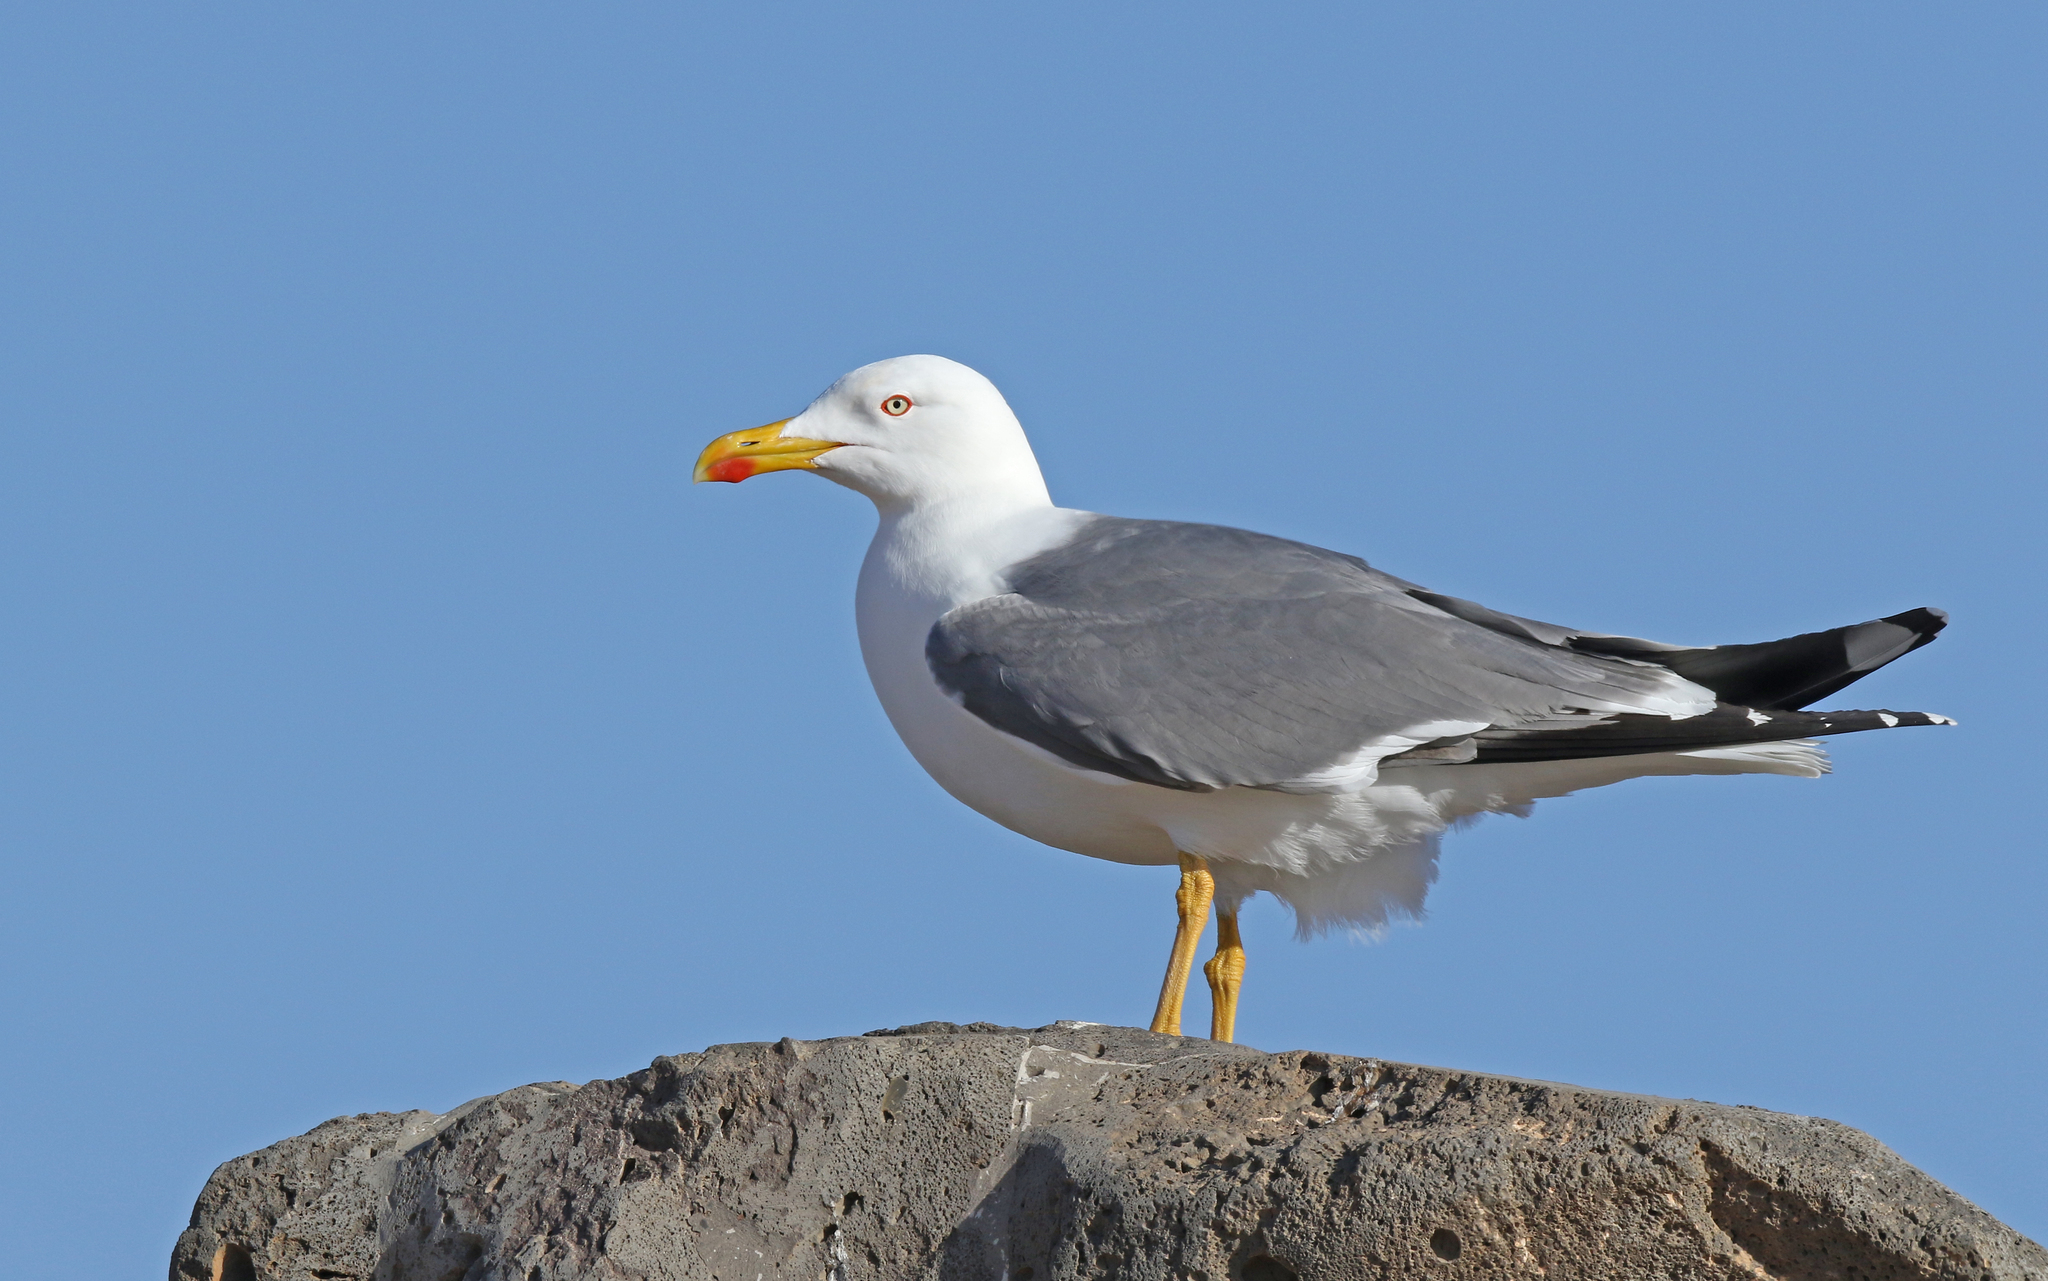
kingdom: Animalia
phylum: Chordata
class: Aves
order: Charadriiformes
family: Laridae
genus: Larus
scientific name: Larus michahellis
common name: Yellow-legged gull
